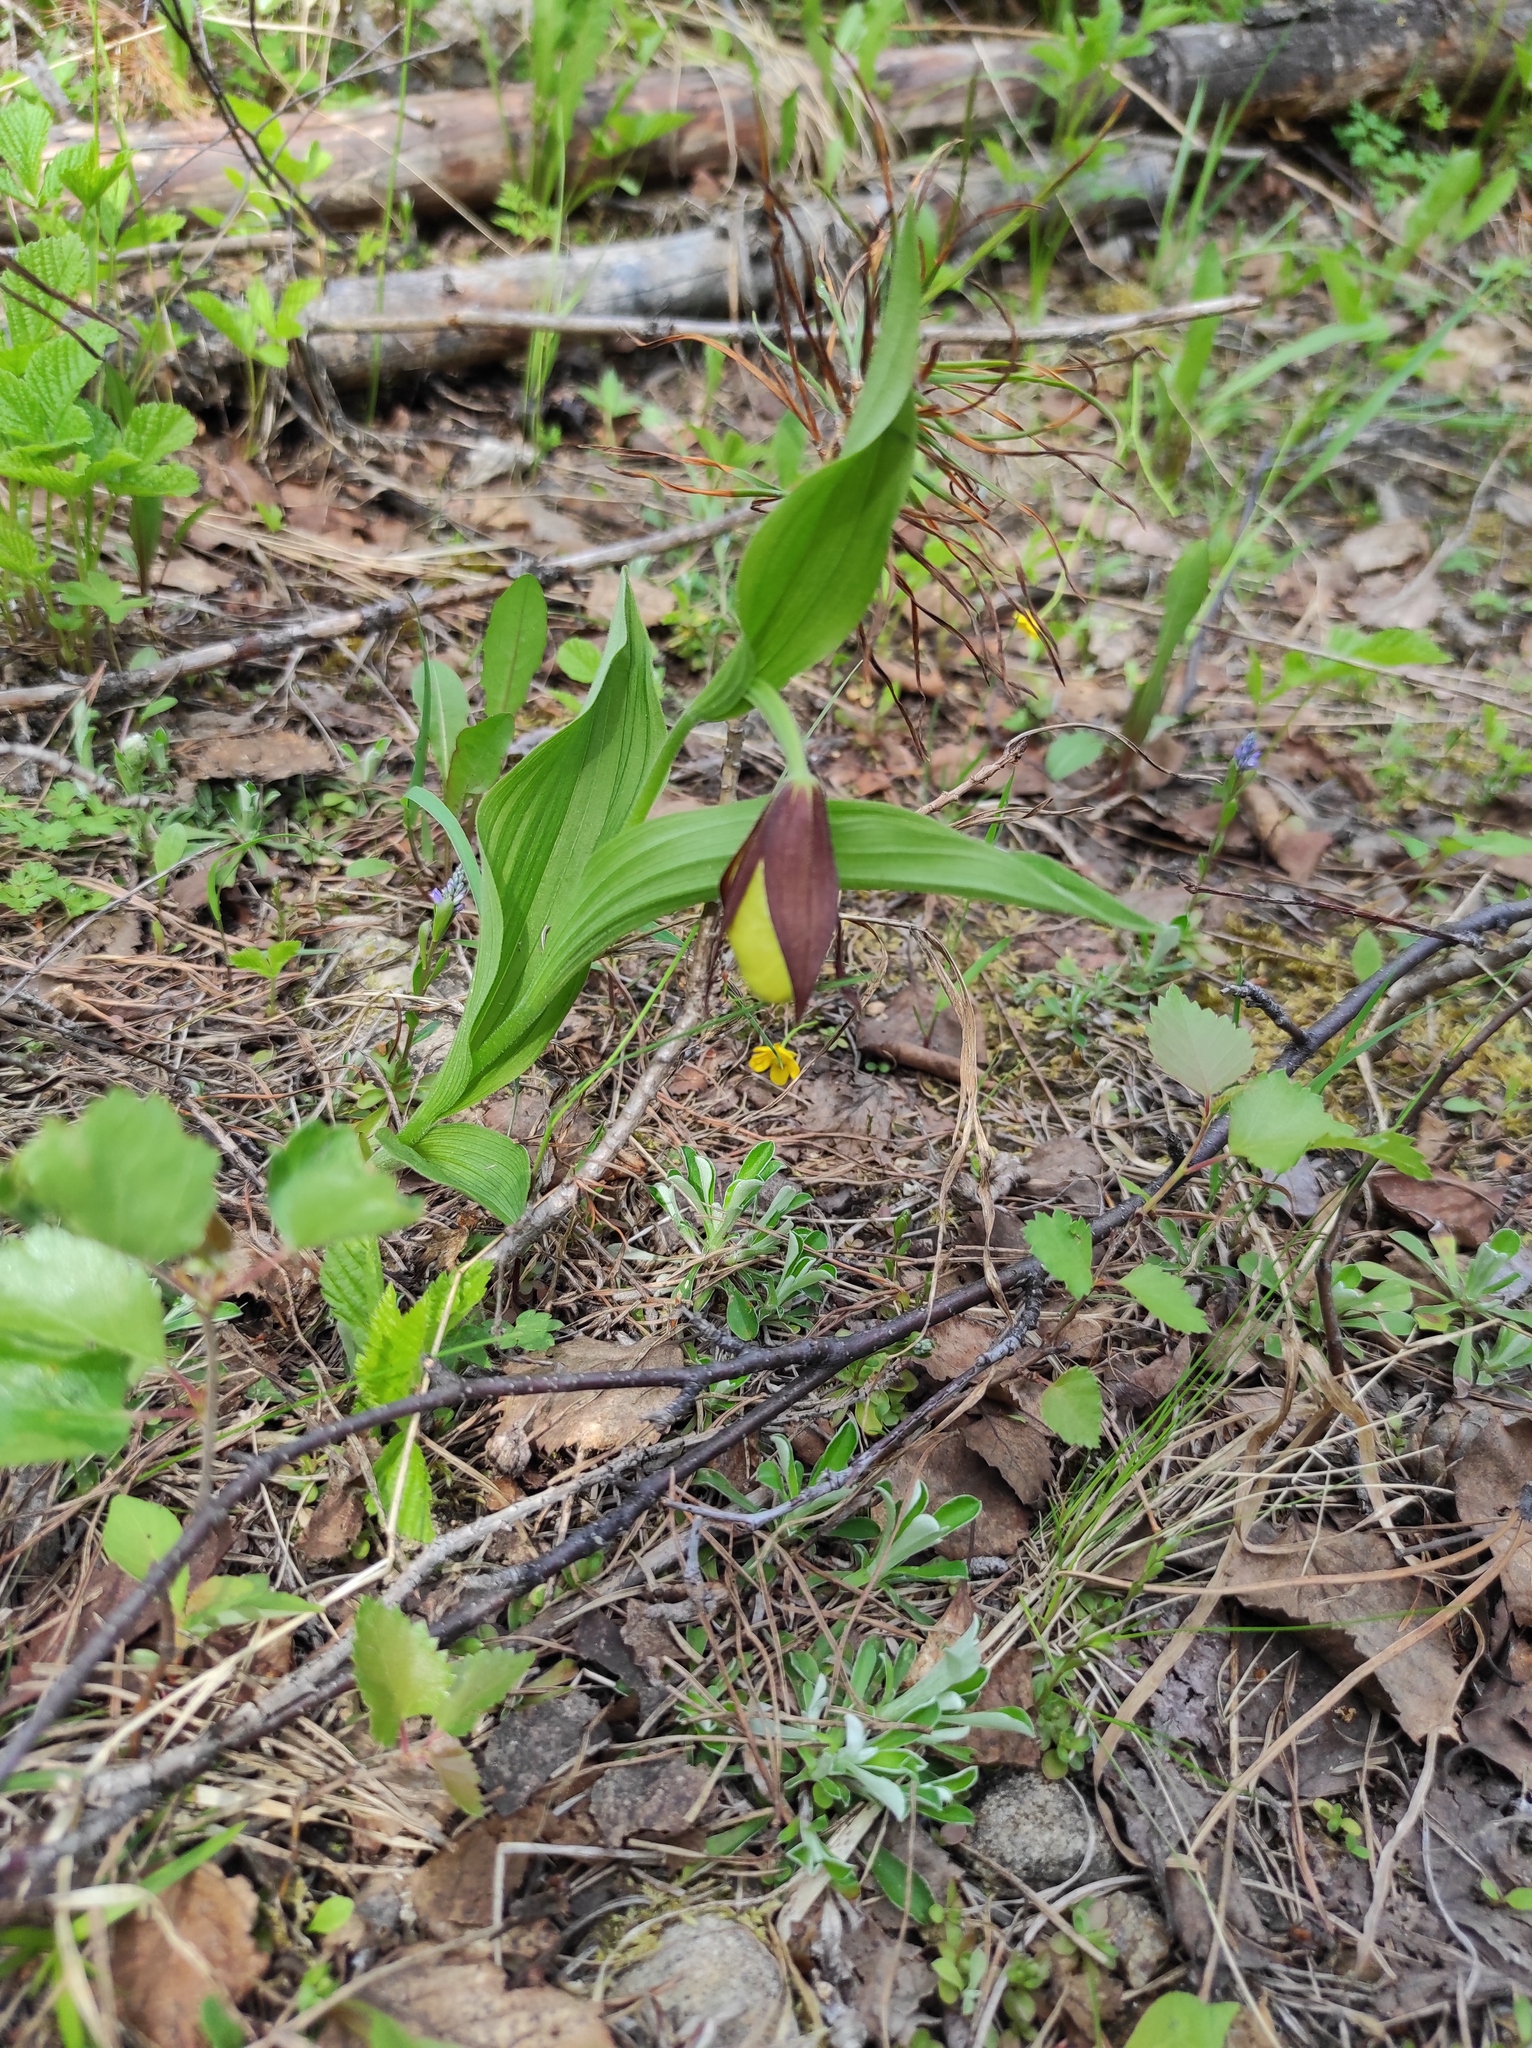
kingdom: Plantae
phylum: Tracheophyta
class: Liliopsida
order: Asparagales
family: Orchidaceae
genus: Cypripedium
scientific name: Cypripedium calceolus
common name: Lady's-slipper
